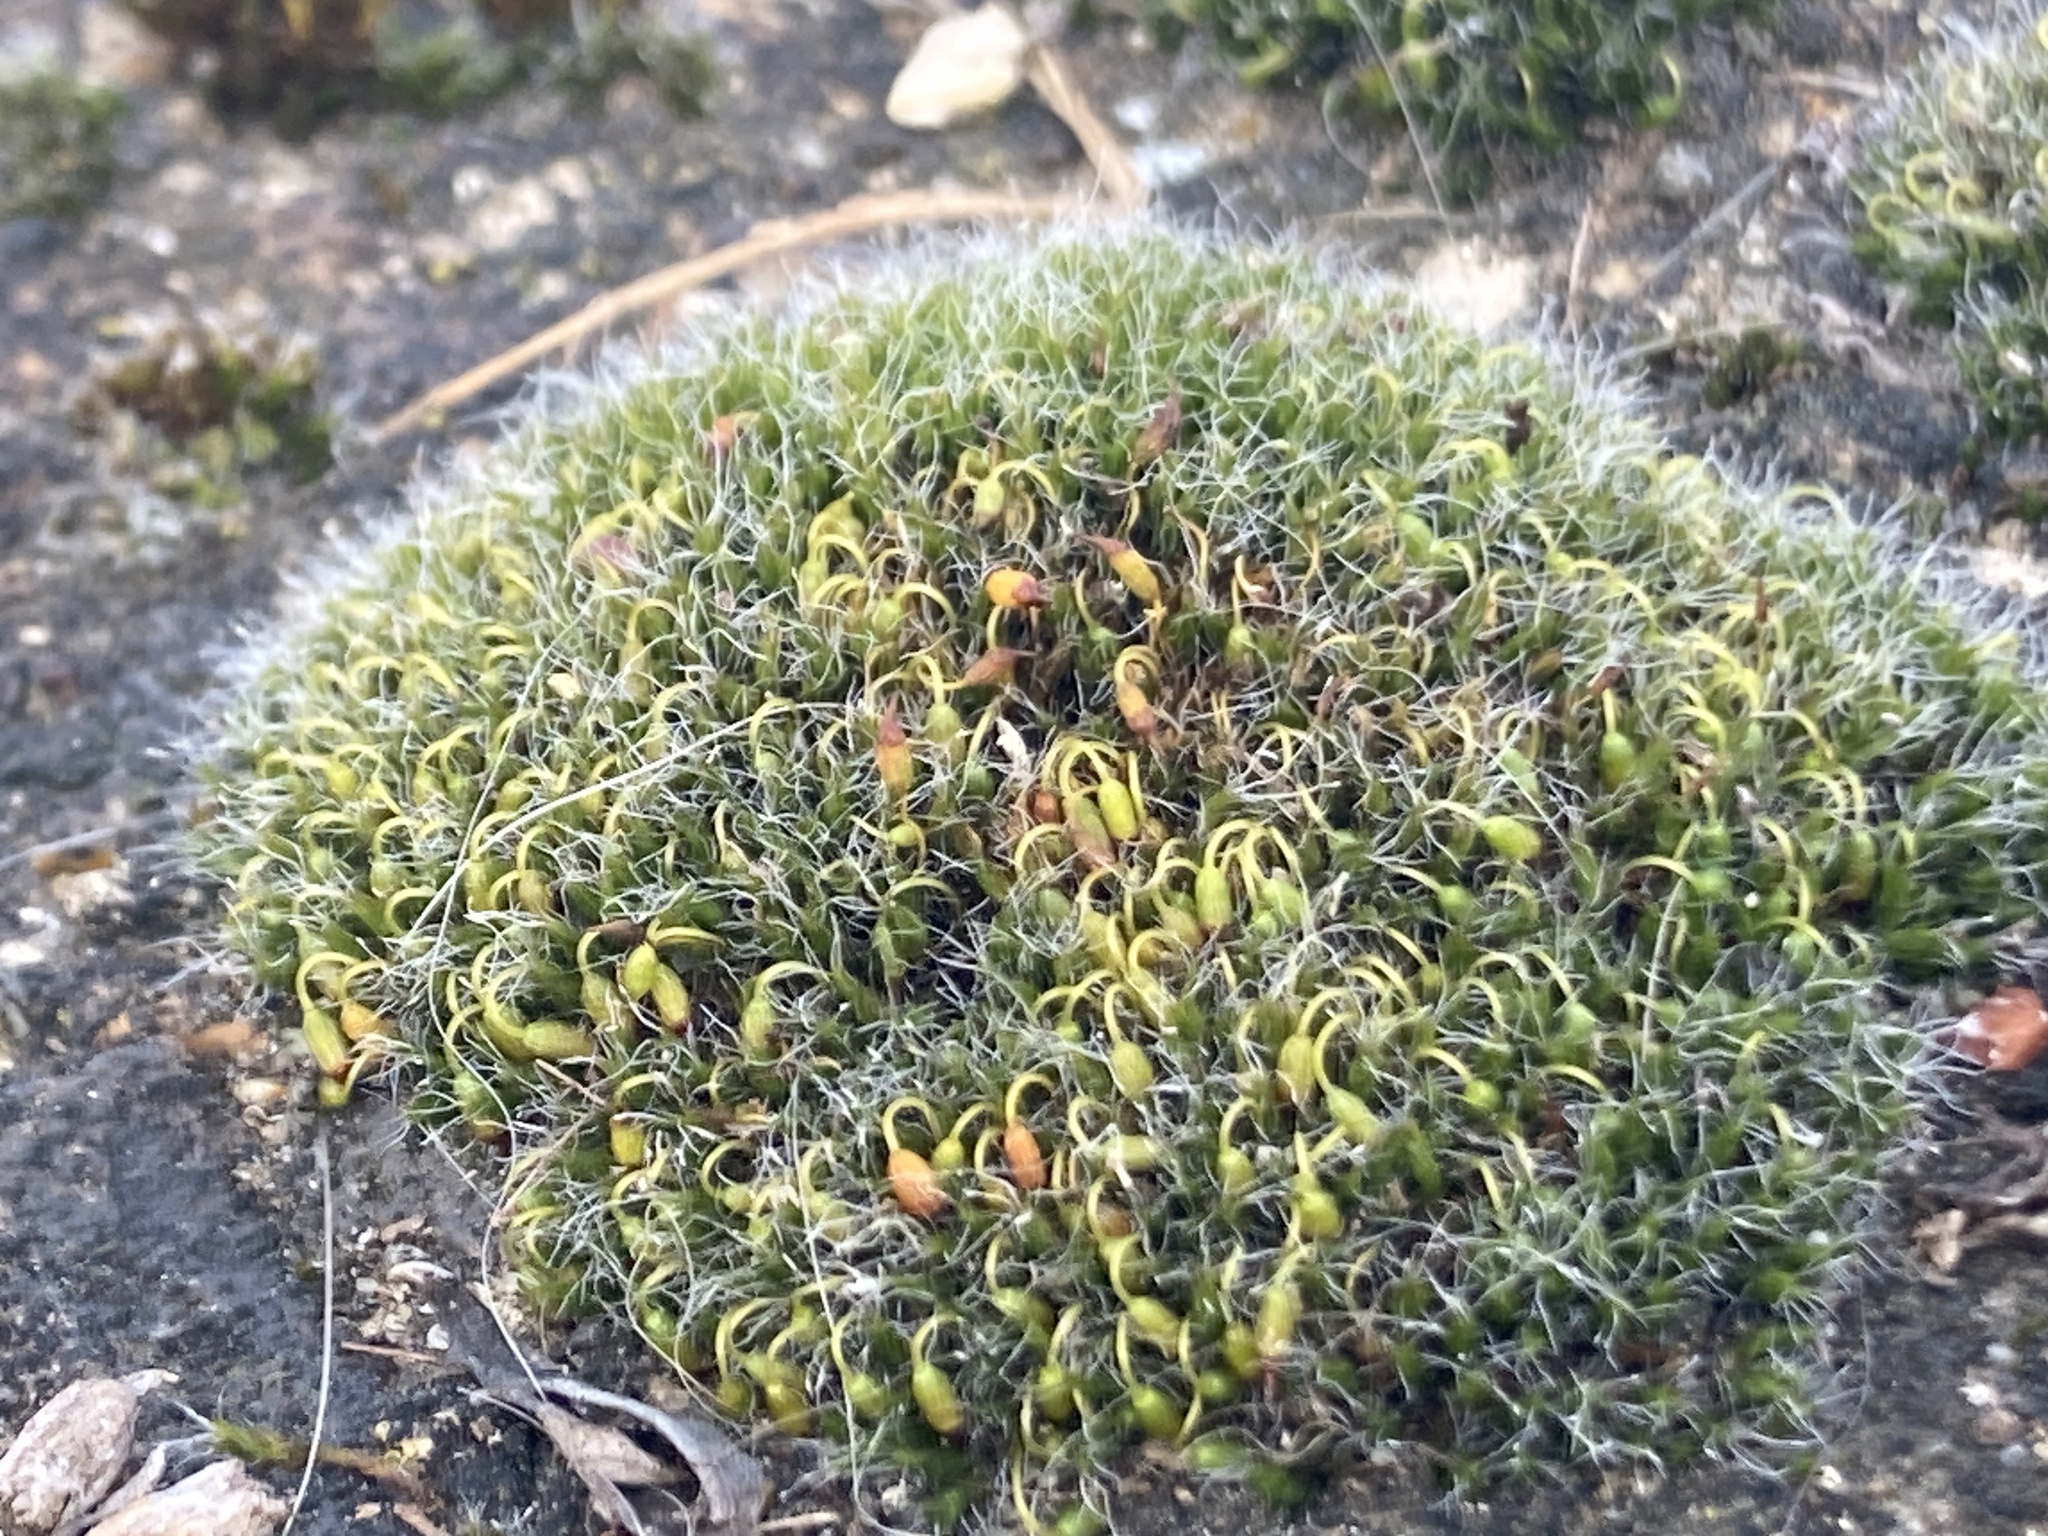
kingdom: Plantae
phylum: Bryophyta
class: Bryopsida
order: Grimmiales
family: Grimmiaceae
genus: Grimmia
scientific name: Grimmia pulvinata
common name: Grey-cushioned grimmia
